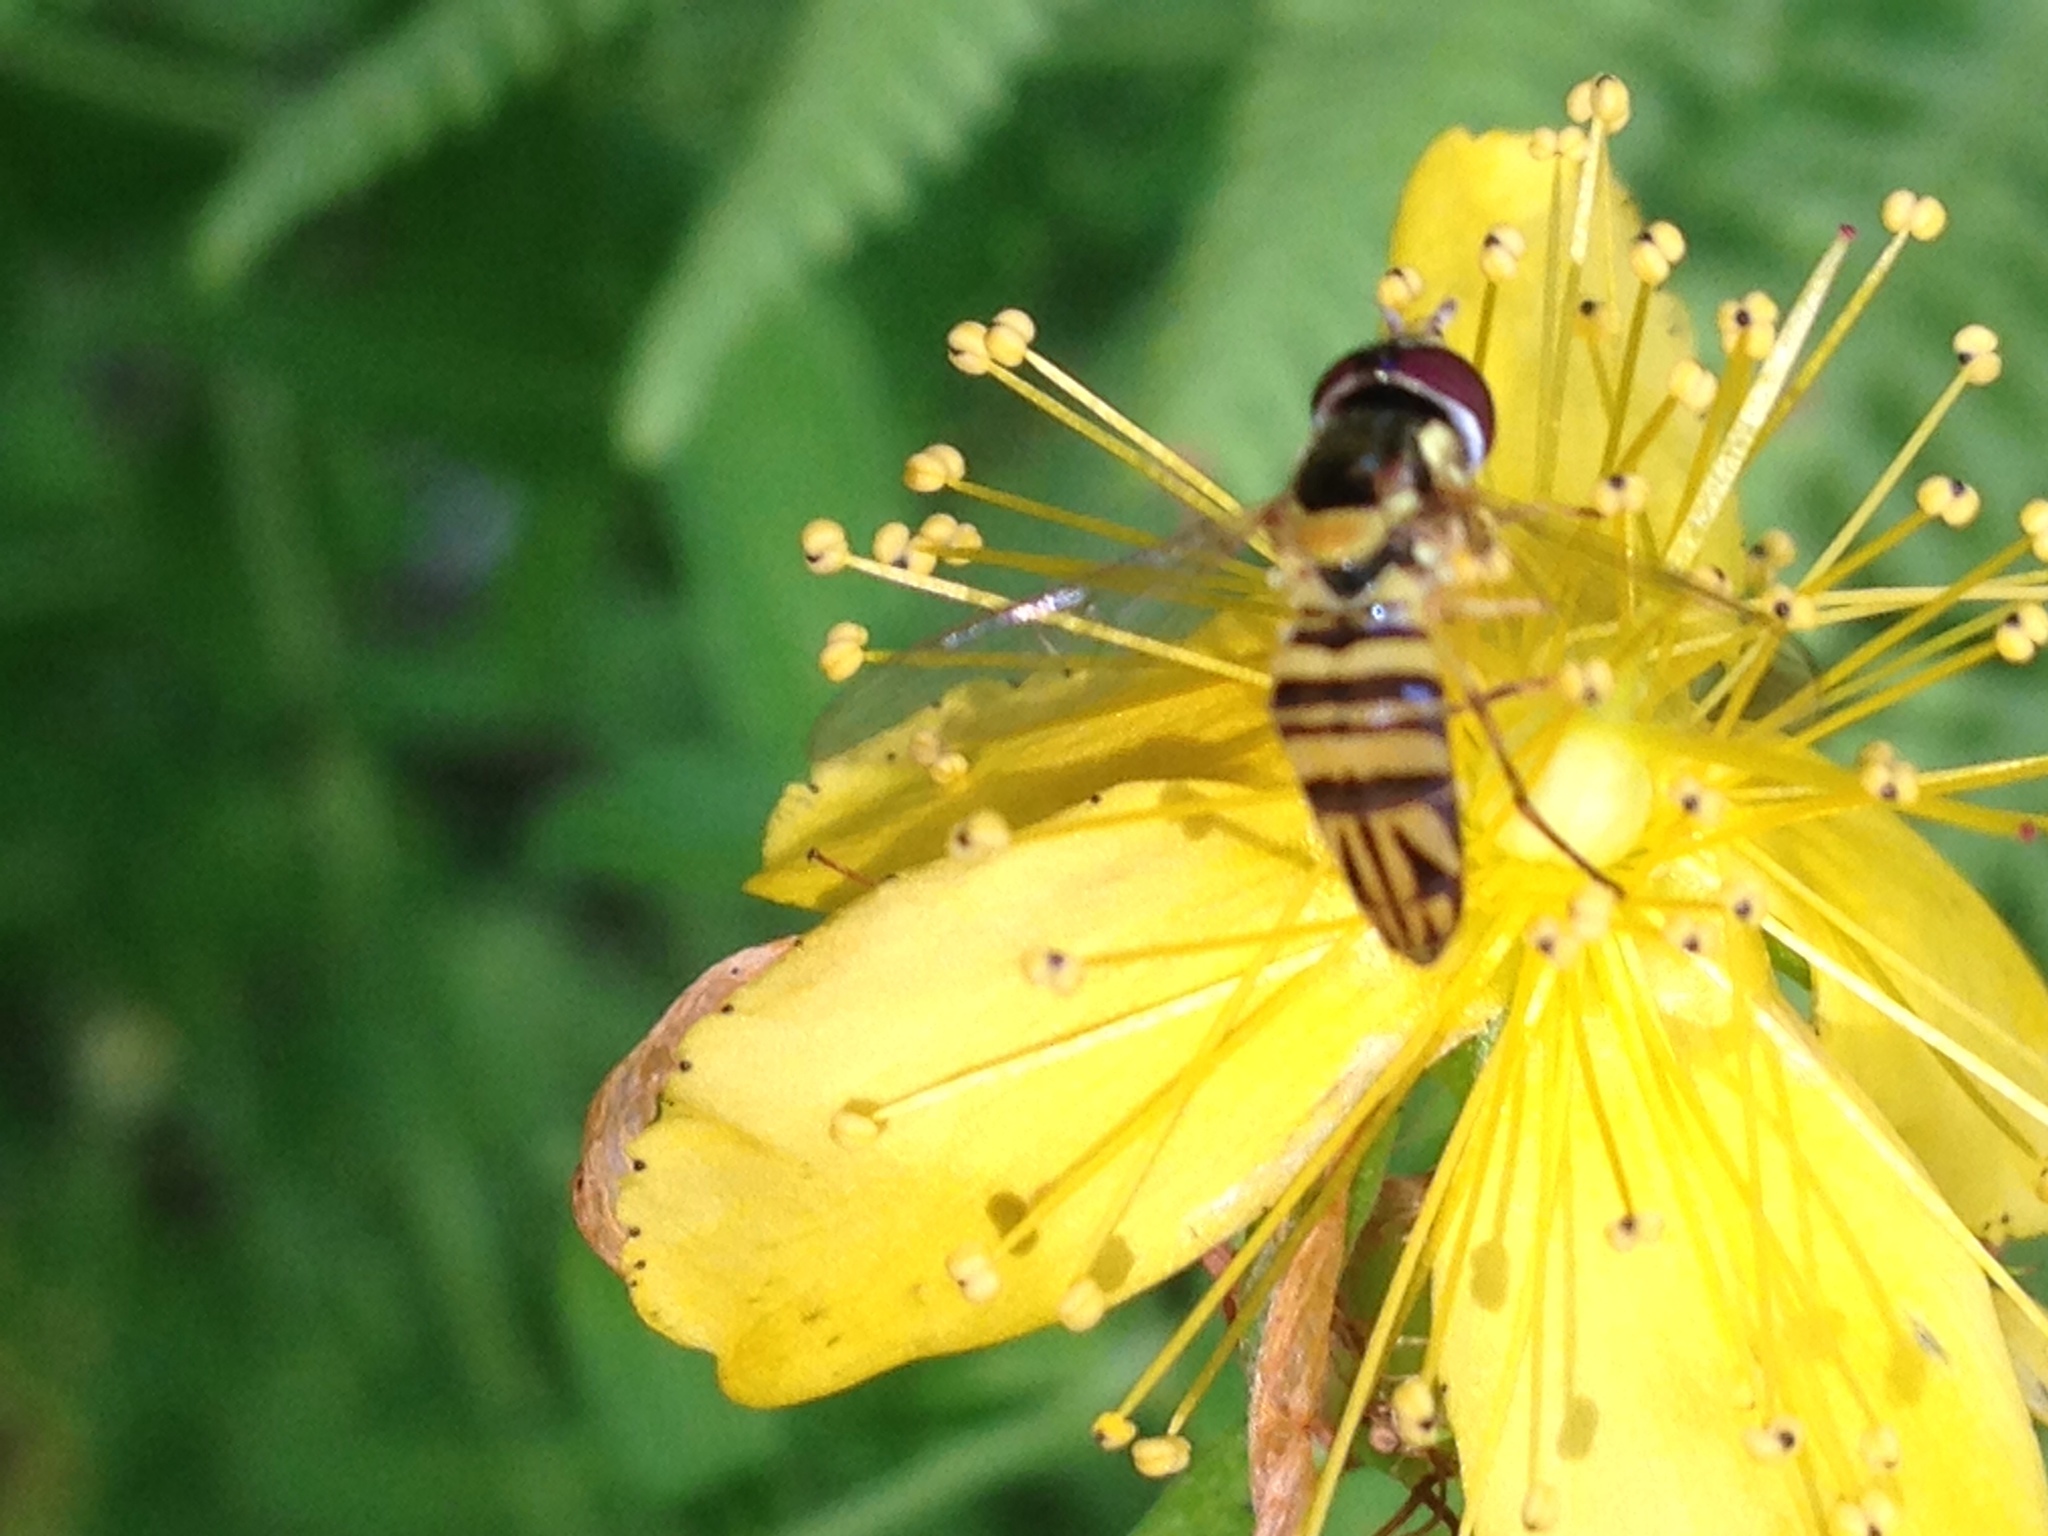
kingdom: Animalia
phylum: Arthropoda
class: Insecta
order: Diptera
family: Syrphidae
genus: Allograpta
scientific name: Allograpta obliqua
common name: Common oblique syrphid
